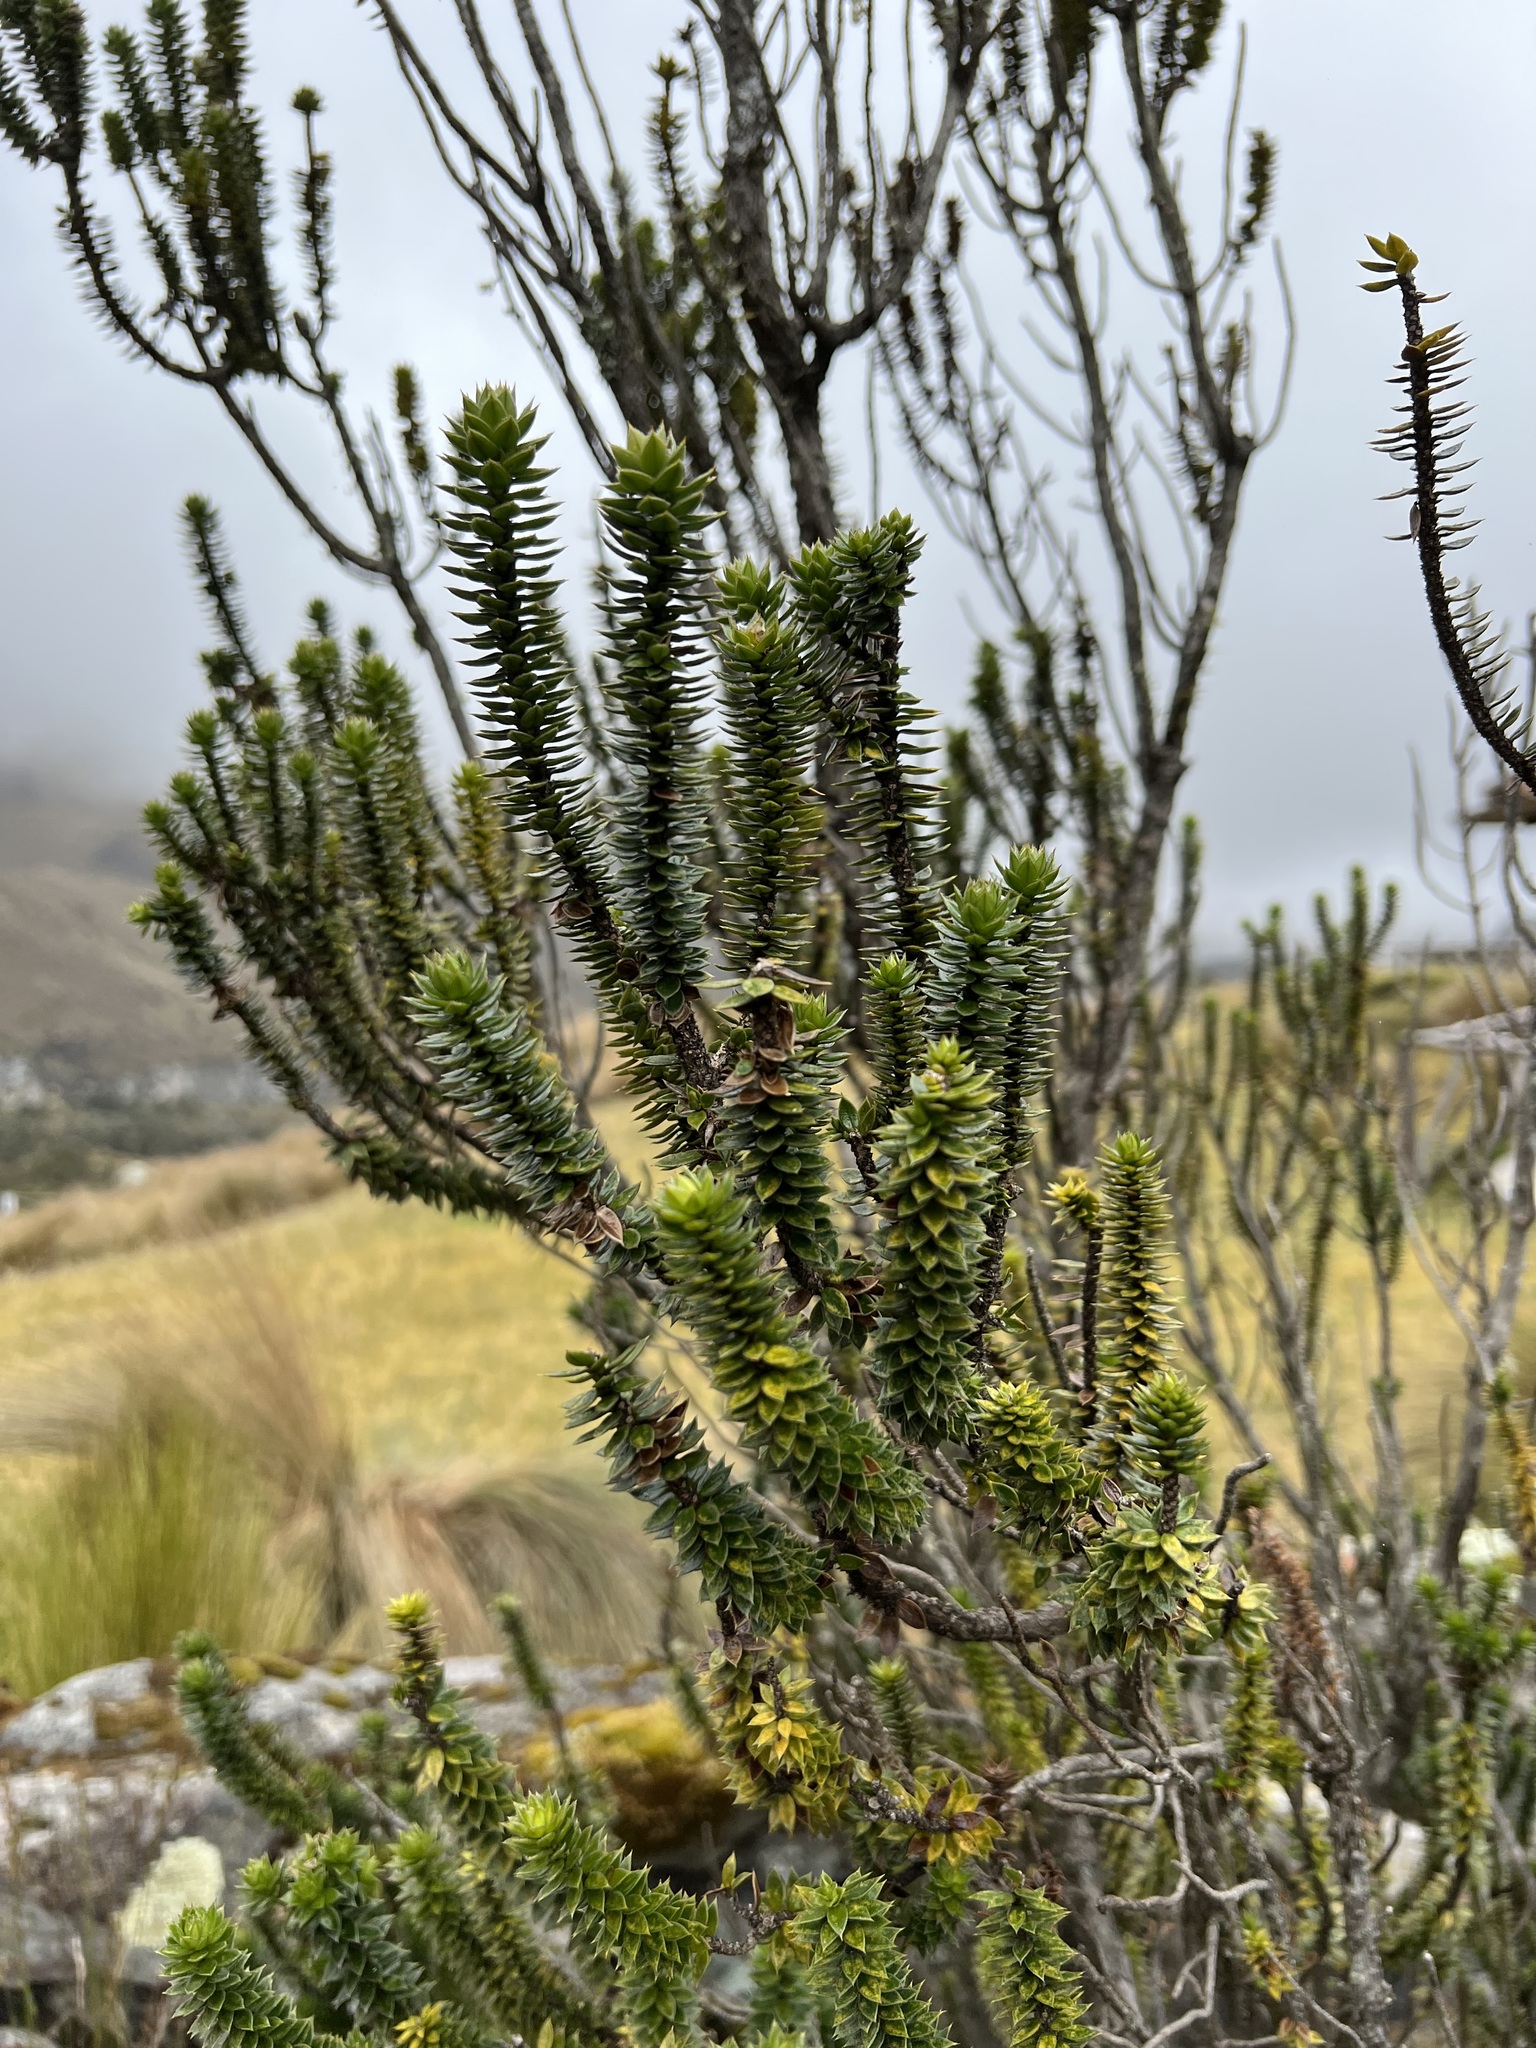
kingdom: Plantae
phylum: Tracheophyta
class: Magnoliopsida
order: Asterales
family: Asteraceae
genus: Chuquiraga
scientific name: Chuquiraga jussieui
